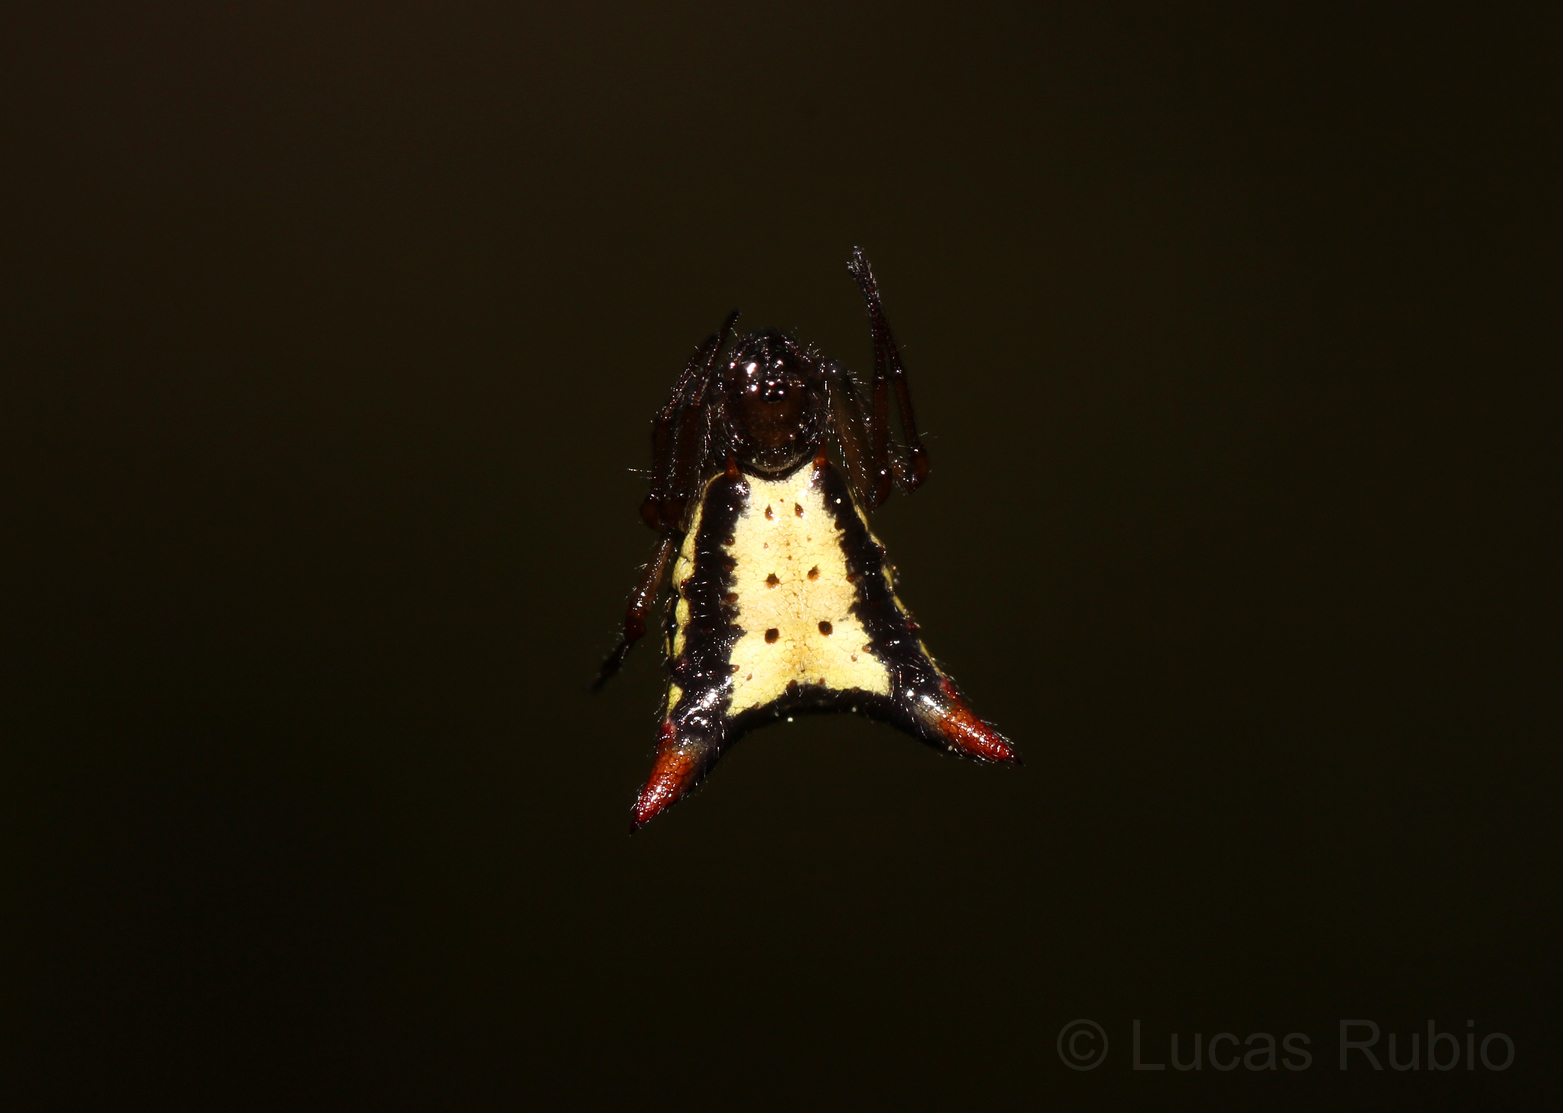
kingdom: Animalia
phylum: Arthropoda
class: Arachnida
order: Araneae
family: Araneidae
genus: Micrathena
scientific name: Micrathena plana
